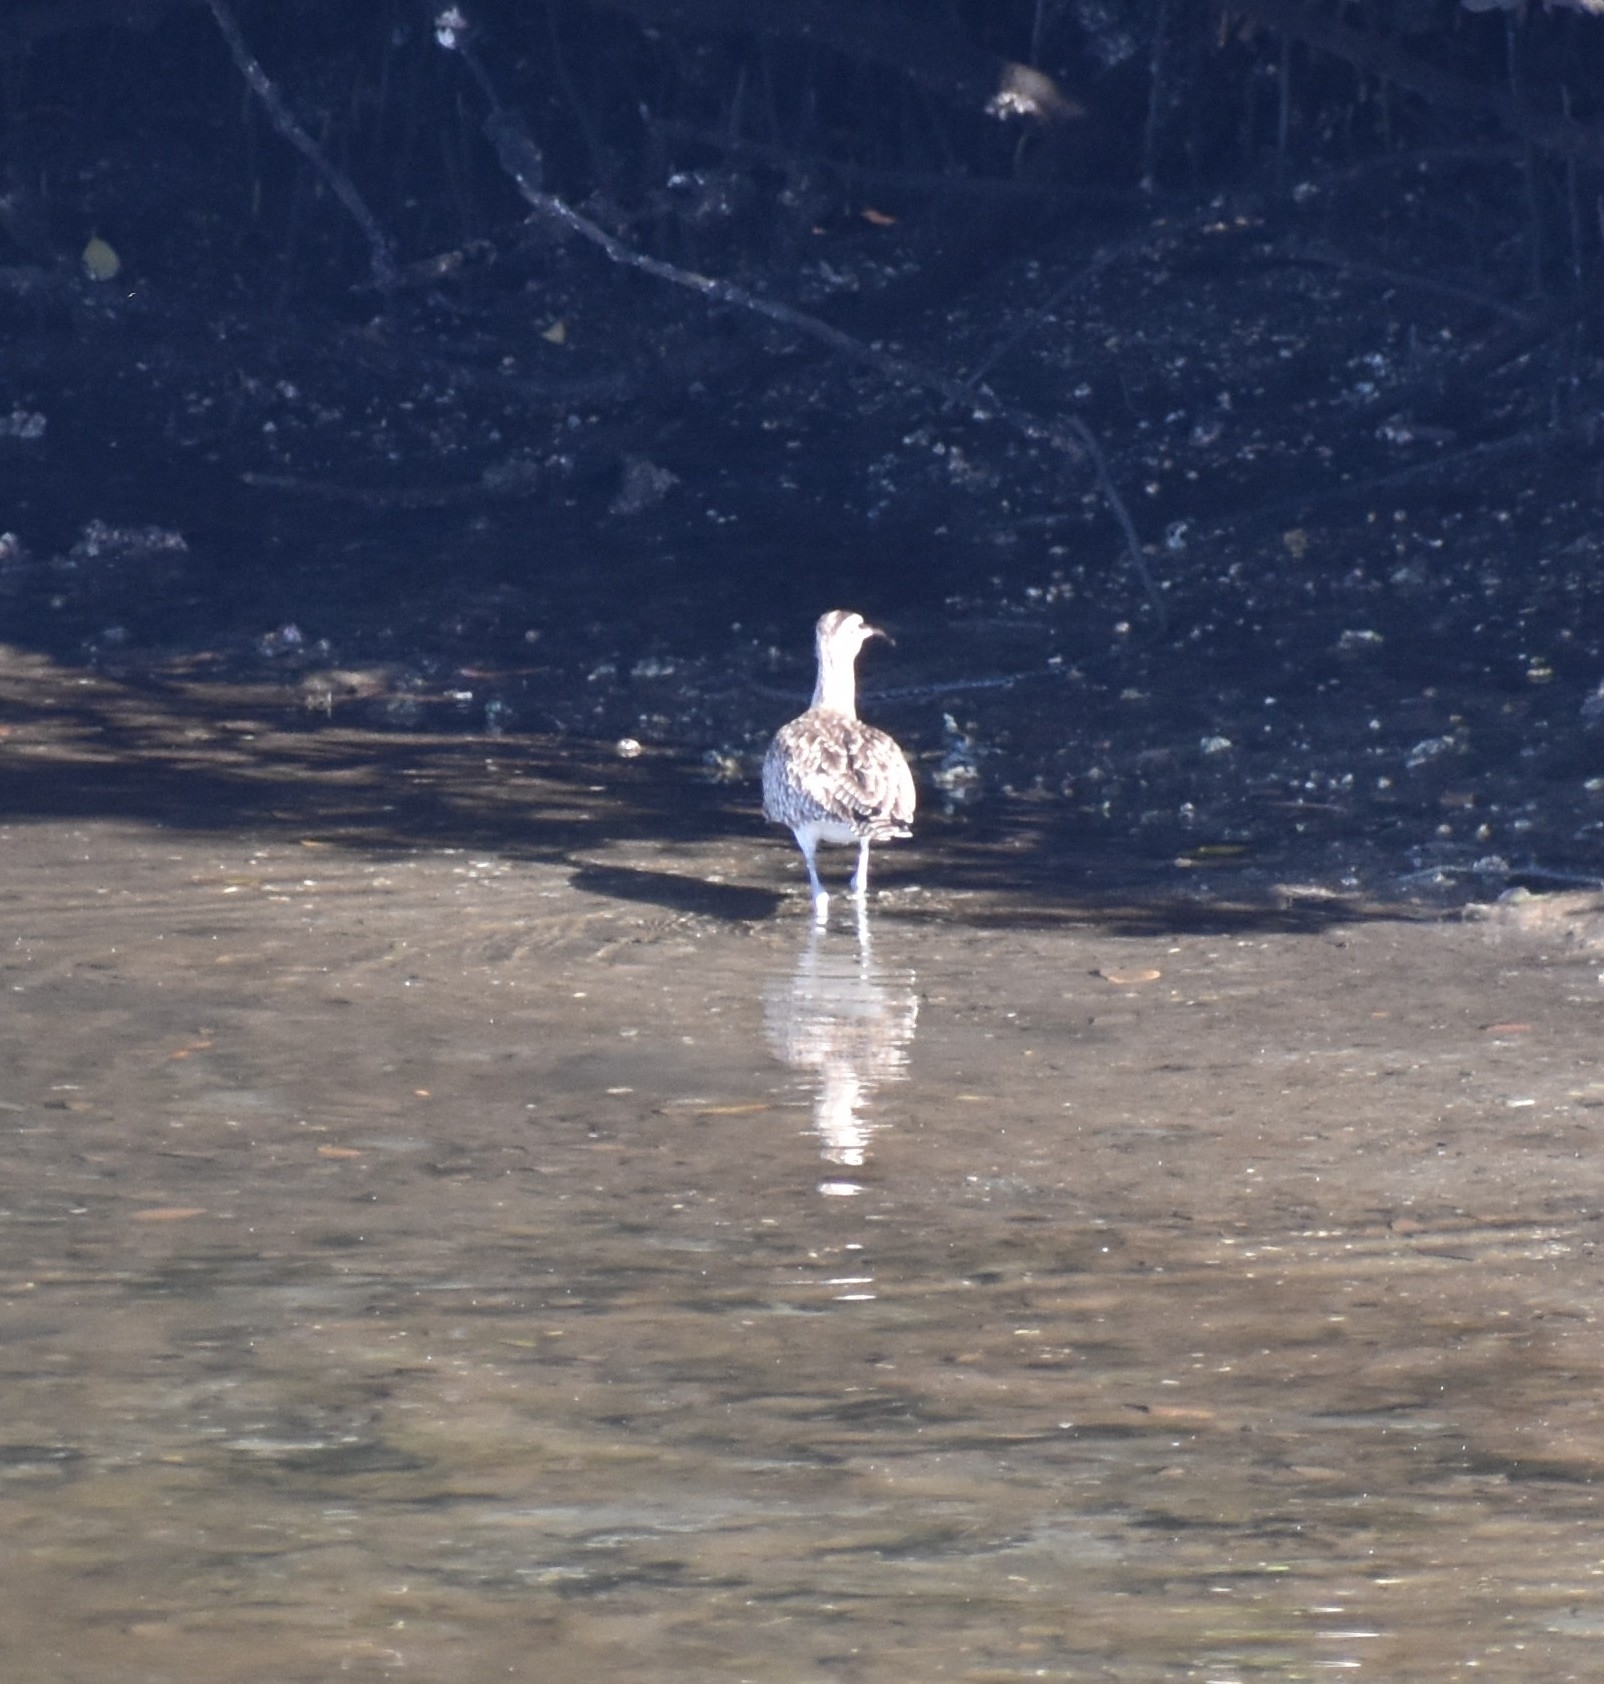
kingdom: Animalia
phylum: Chordata
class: Aves
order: Charadriiformes
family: Scolopacidae
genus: Numenius
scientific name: Numenius phaeopus
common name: Whimbrel
